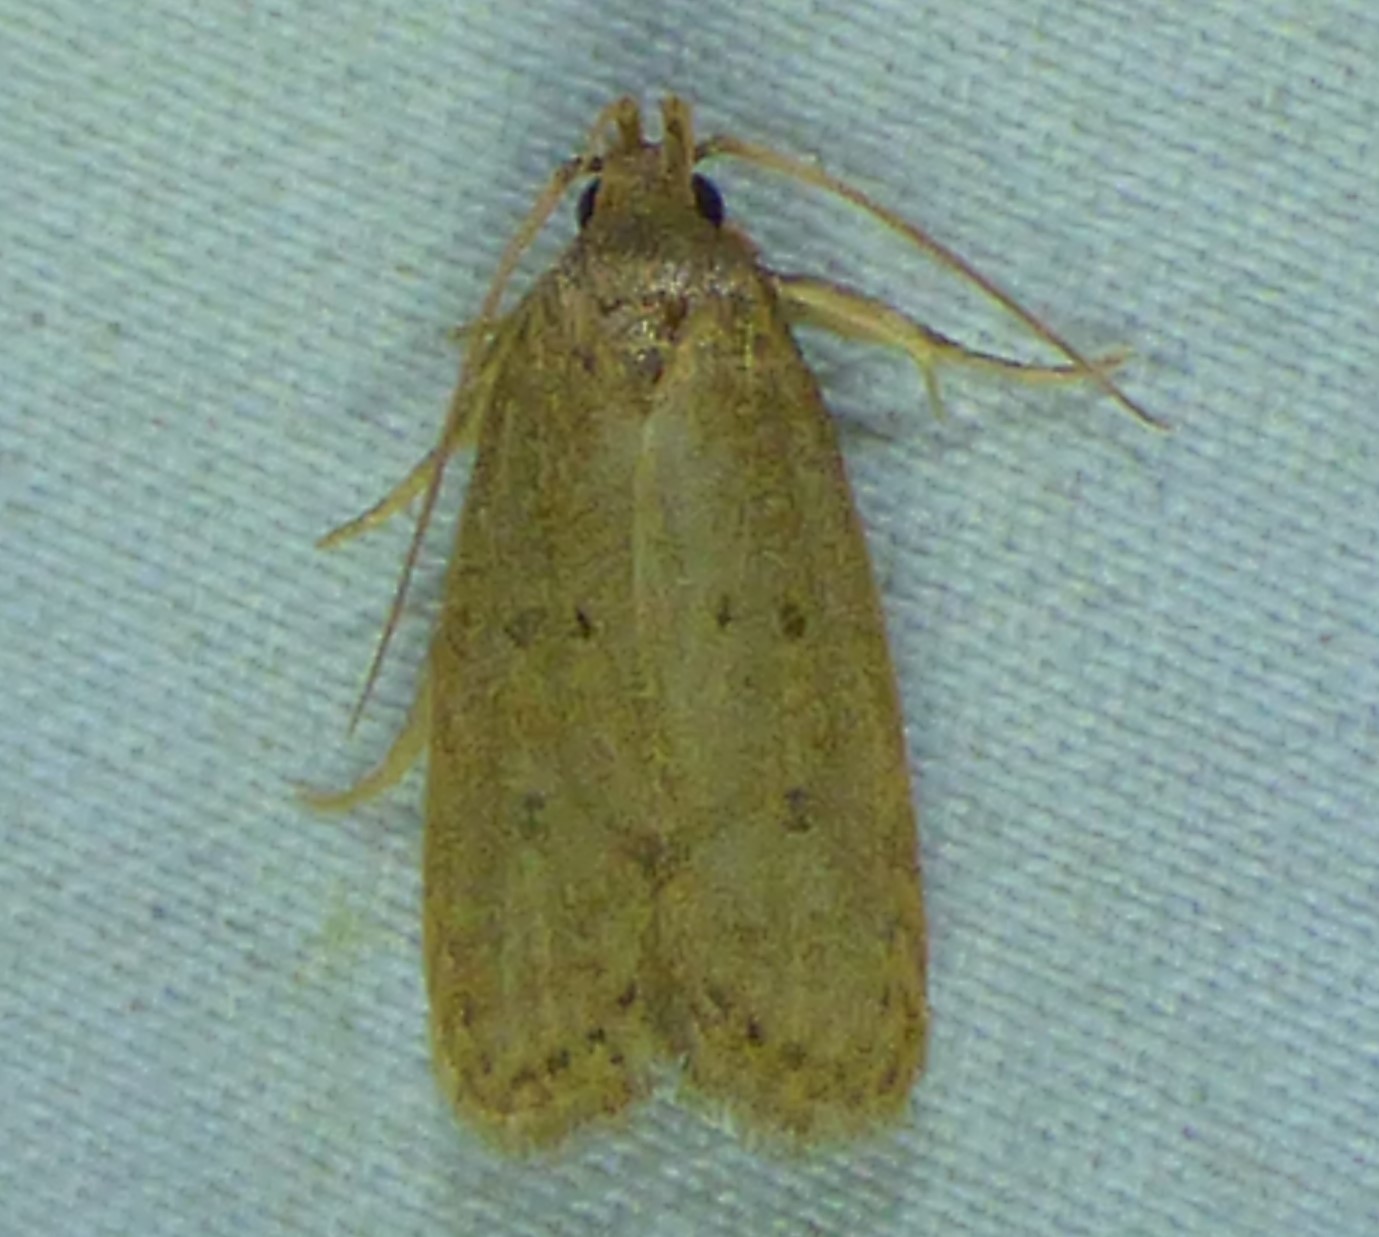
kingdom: Animalia
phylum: Arthropoda
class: Insecta
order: Lepidoptera
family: Autostichidae
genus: Autosticha
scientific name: Autosticha kyotensis
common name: Kyoto moth
